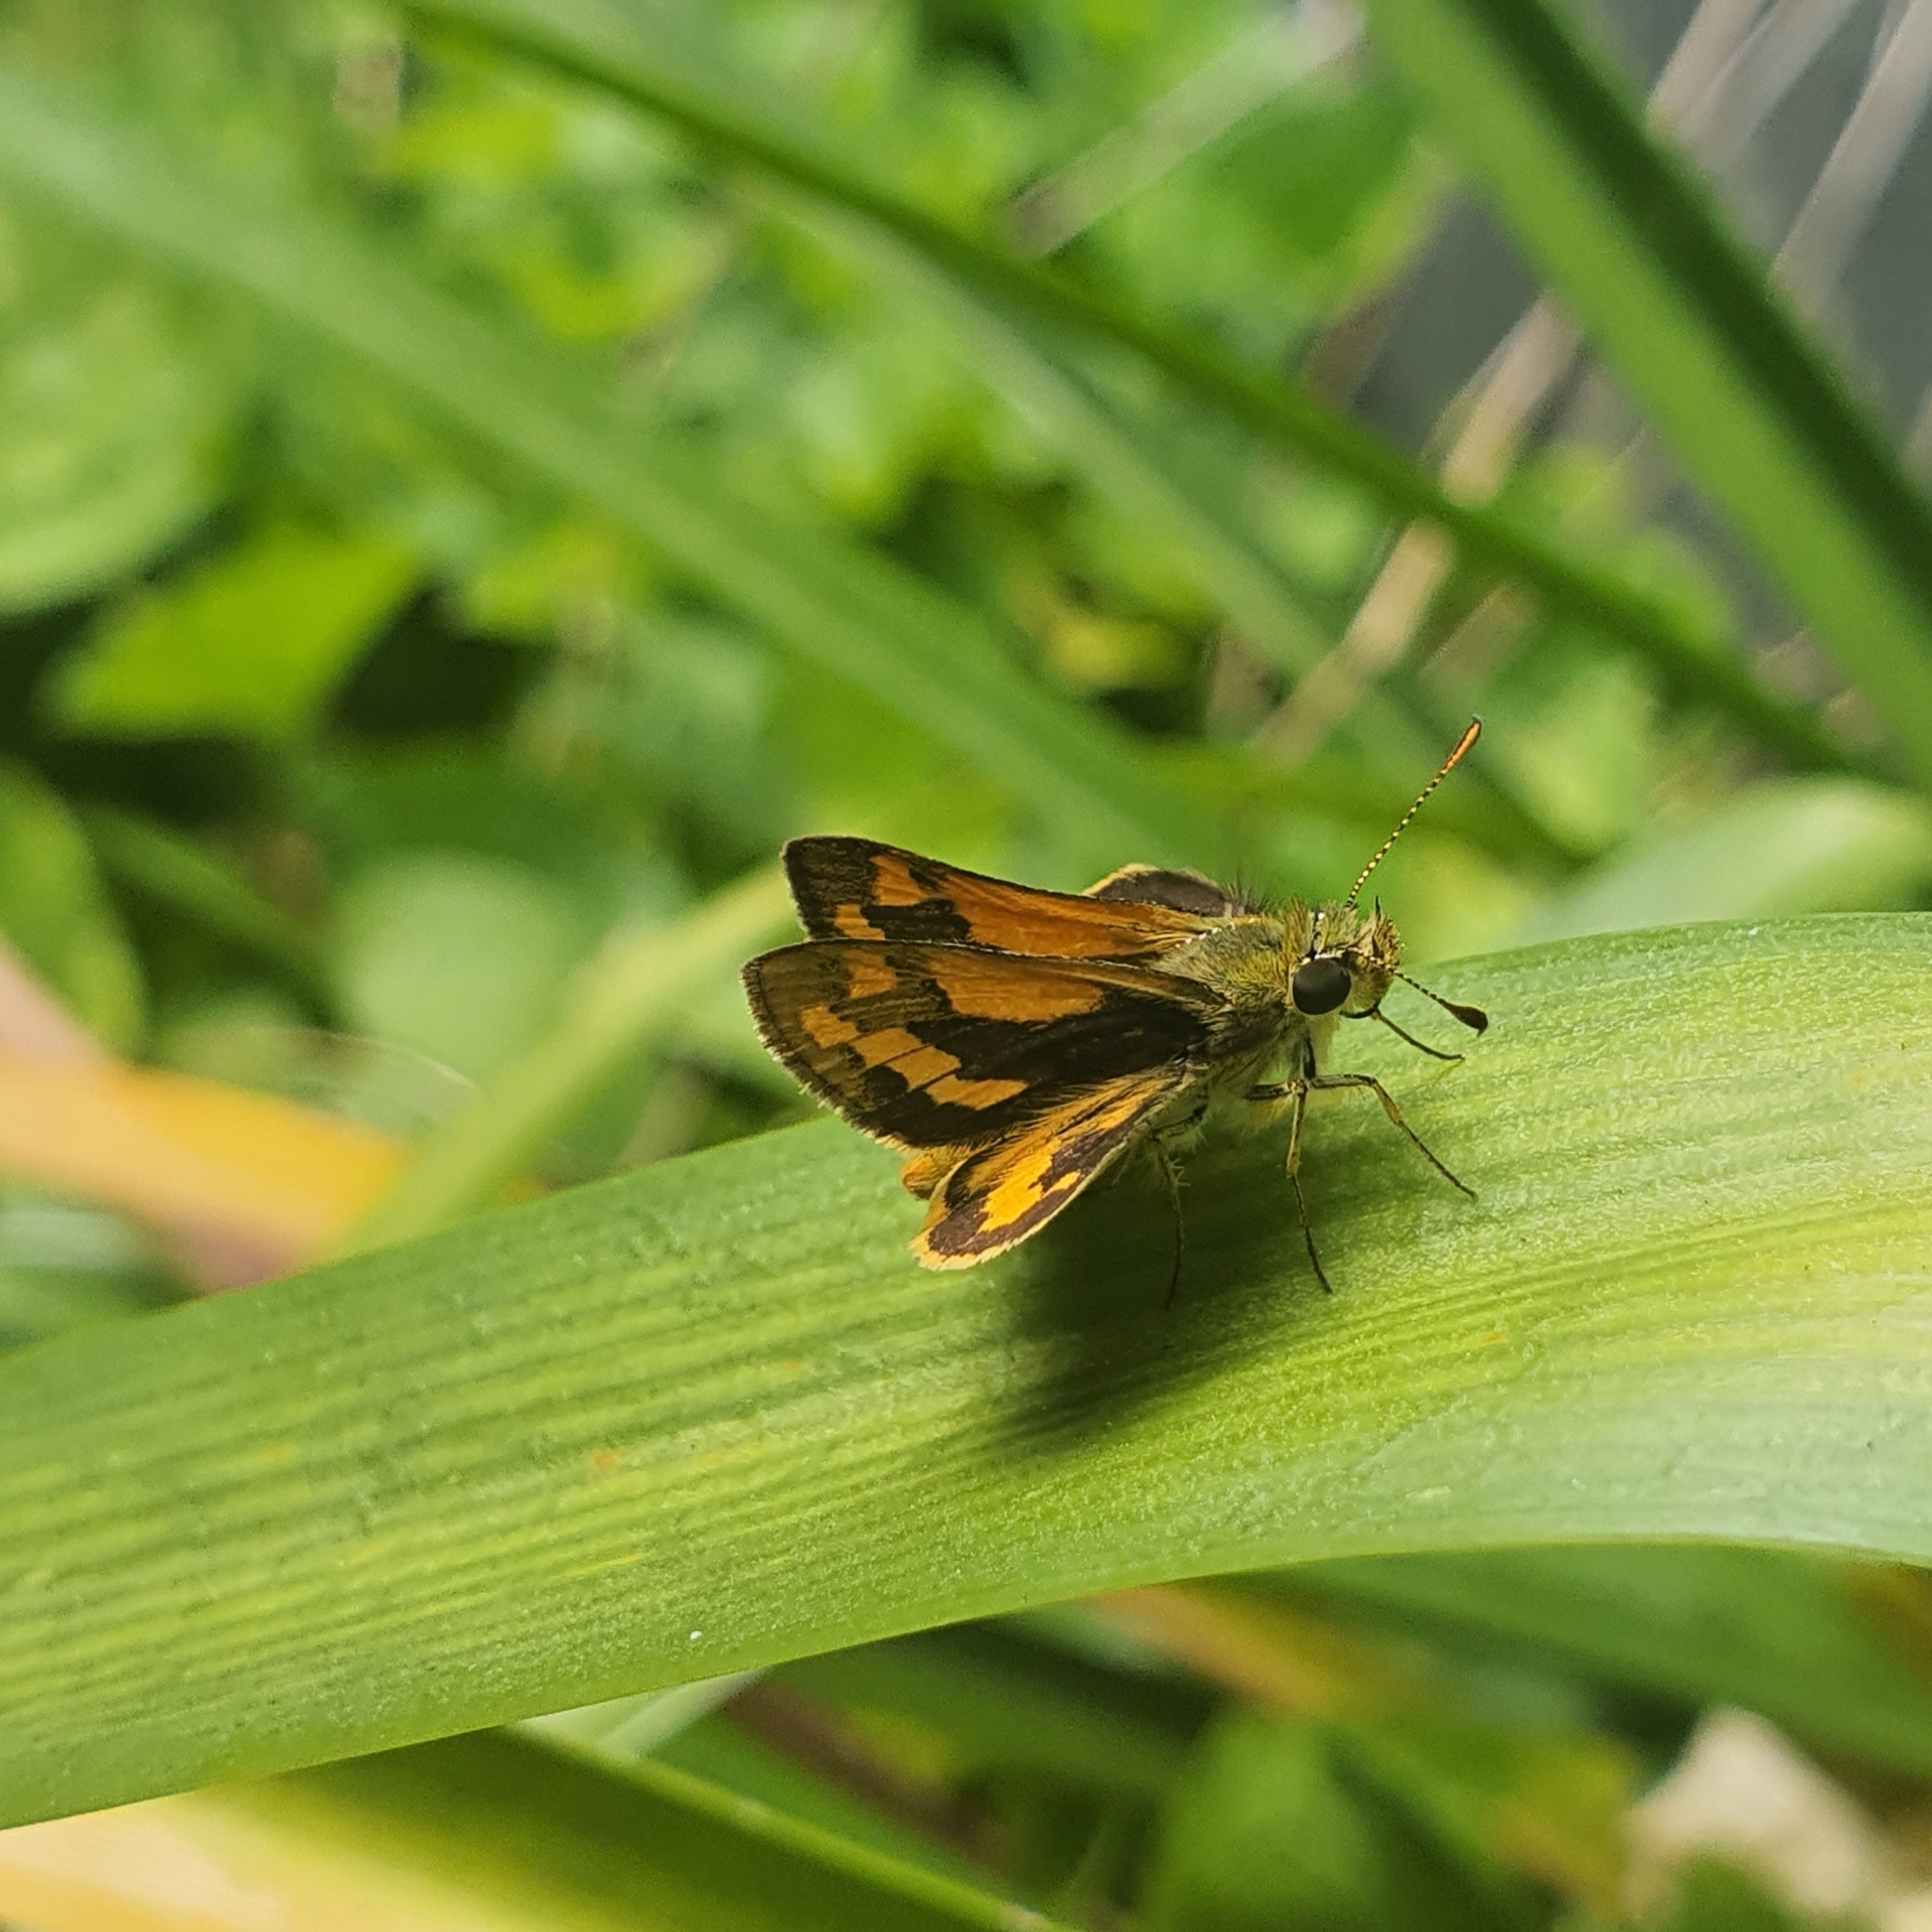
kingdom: Animalia
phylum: Arthropoda
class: Insecta
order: Lepidoptera
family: Hesperiidae
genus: Ocybadistes
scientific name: Ocybadistes walkeri
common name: Yellow-banded dart
